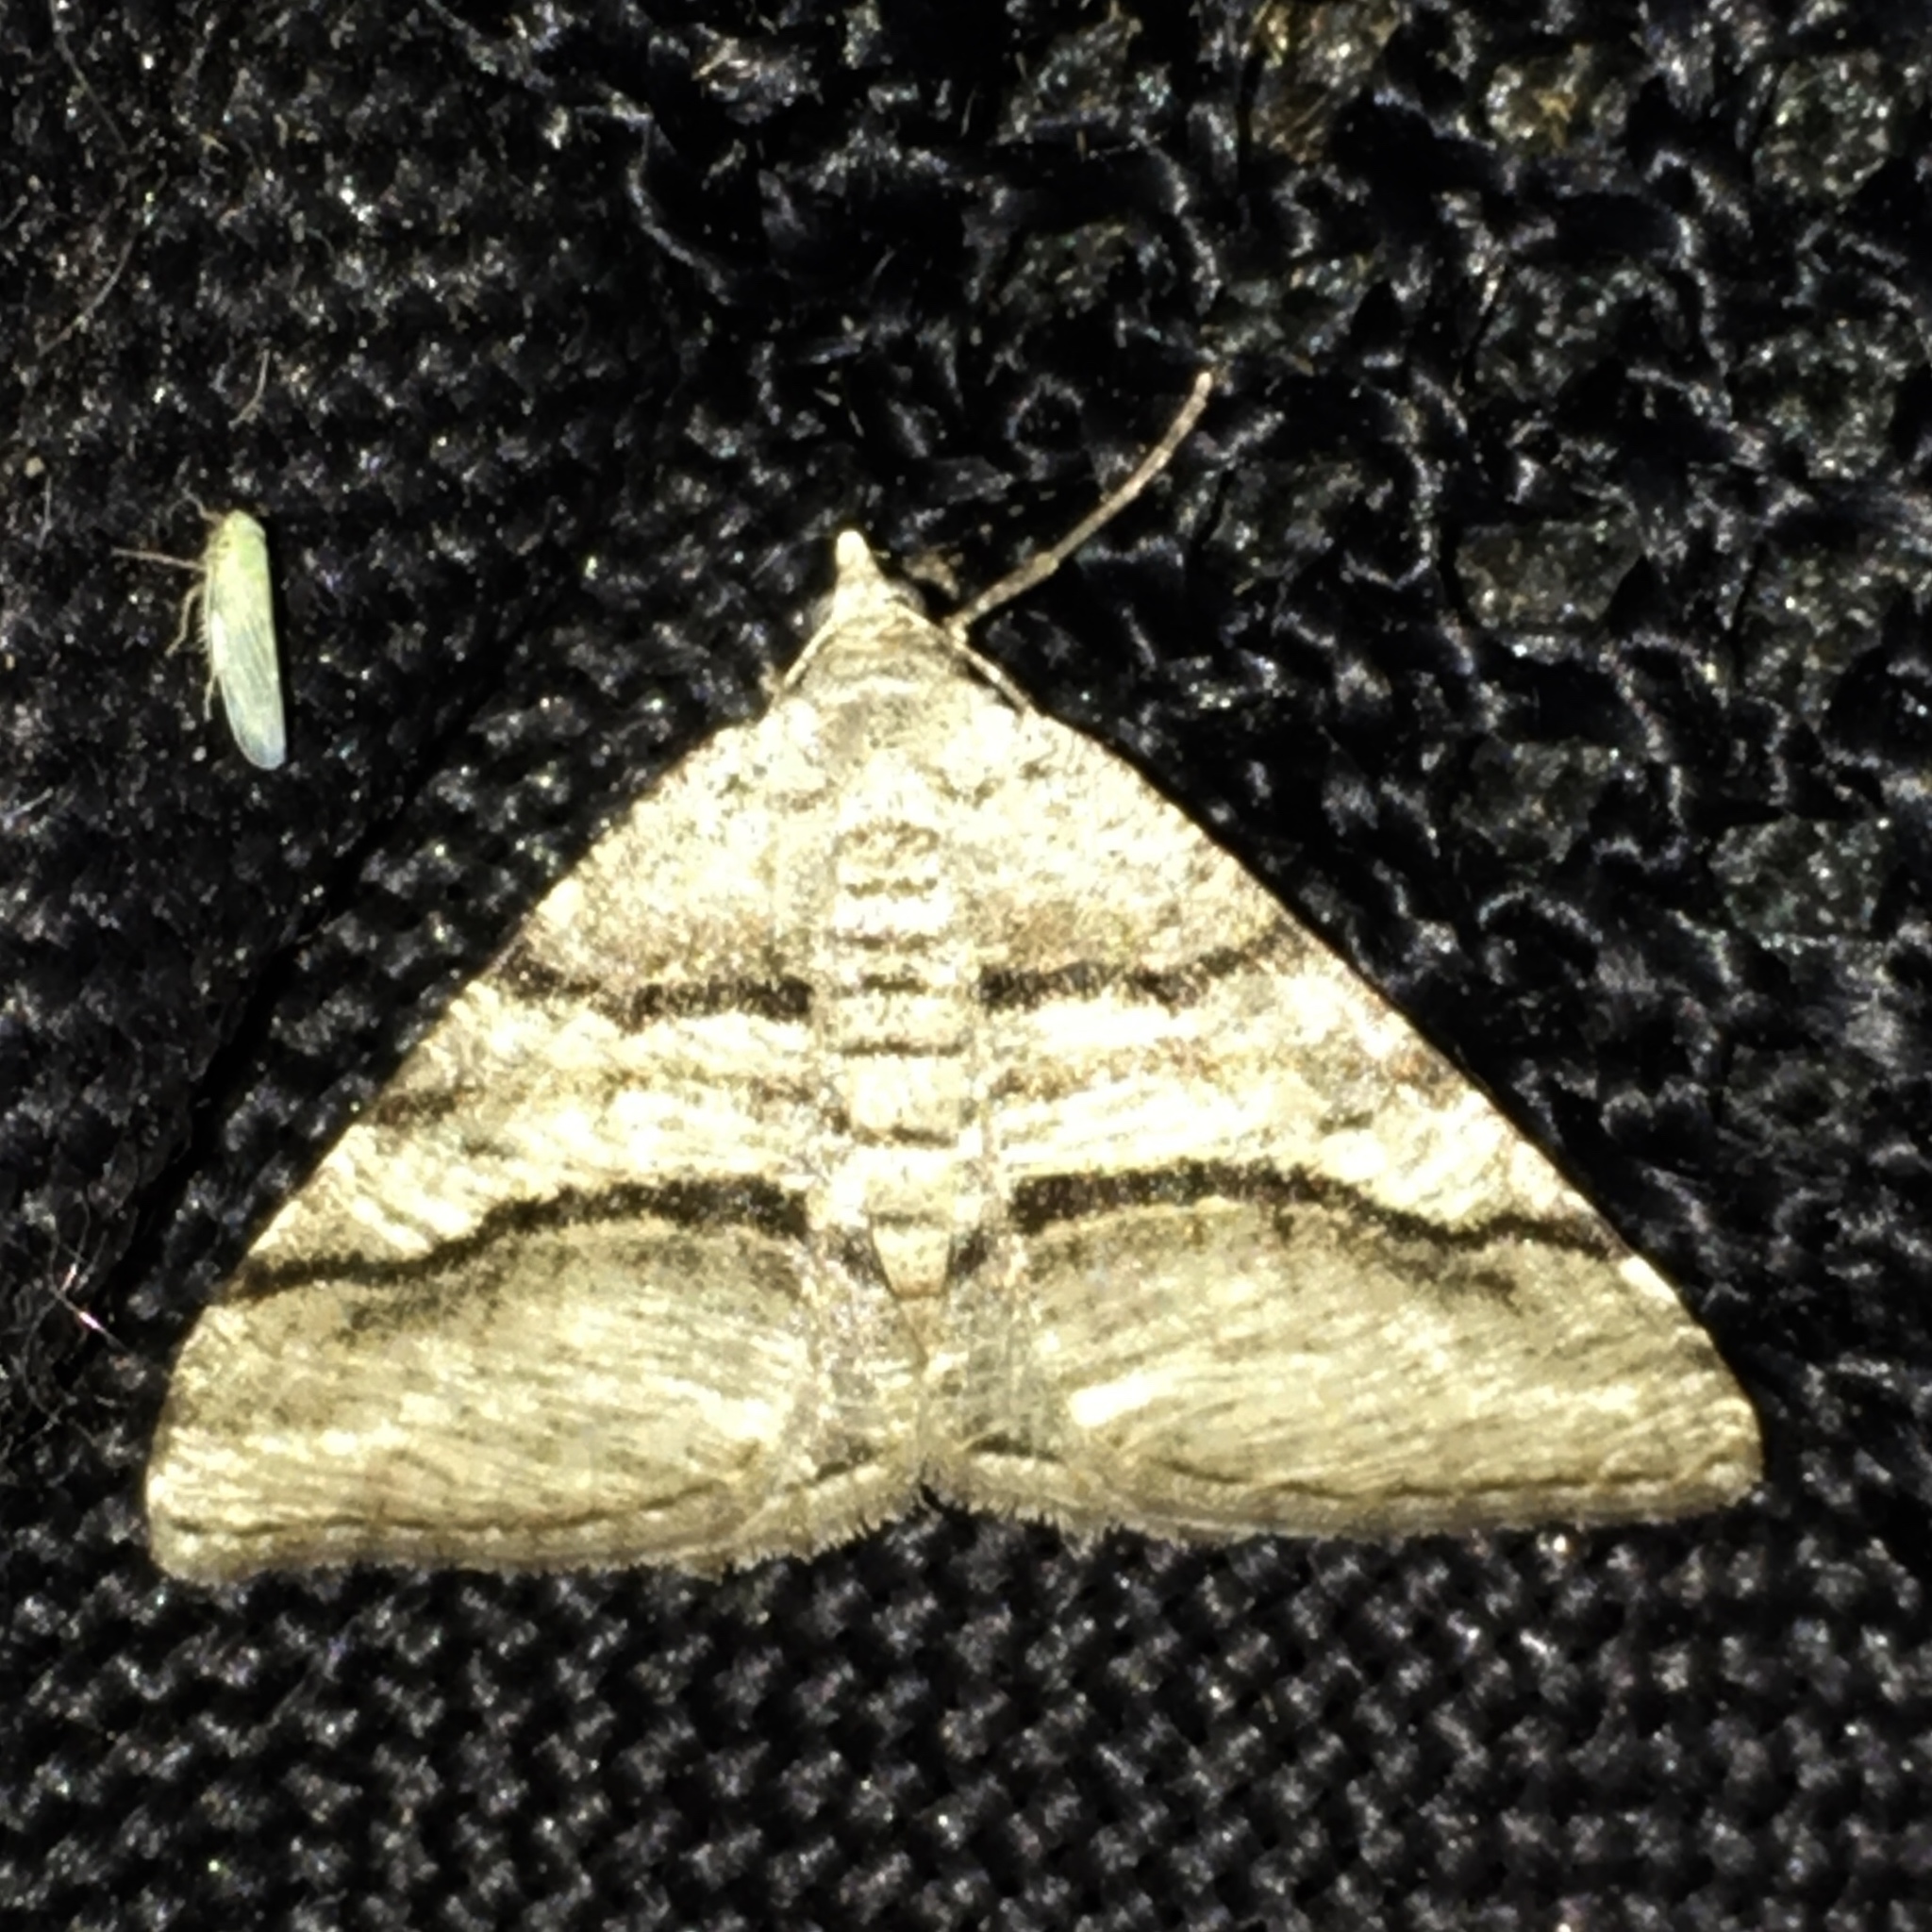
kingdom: Animalia
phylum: Arthropoda
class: Insecta
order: Lepidoptera
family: Geometridae
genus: Digrammia
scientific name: Digrammia continuata
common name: Curve-lined angle
